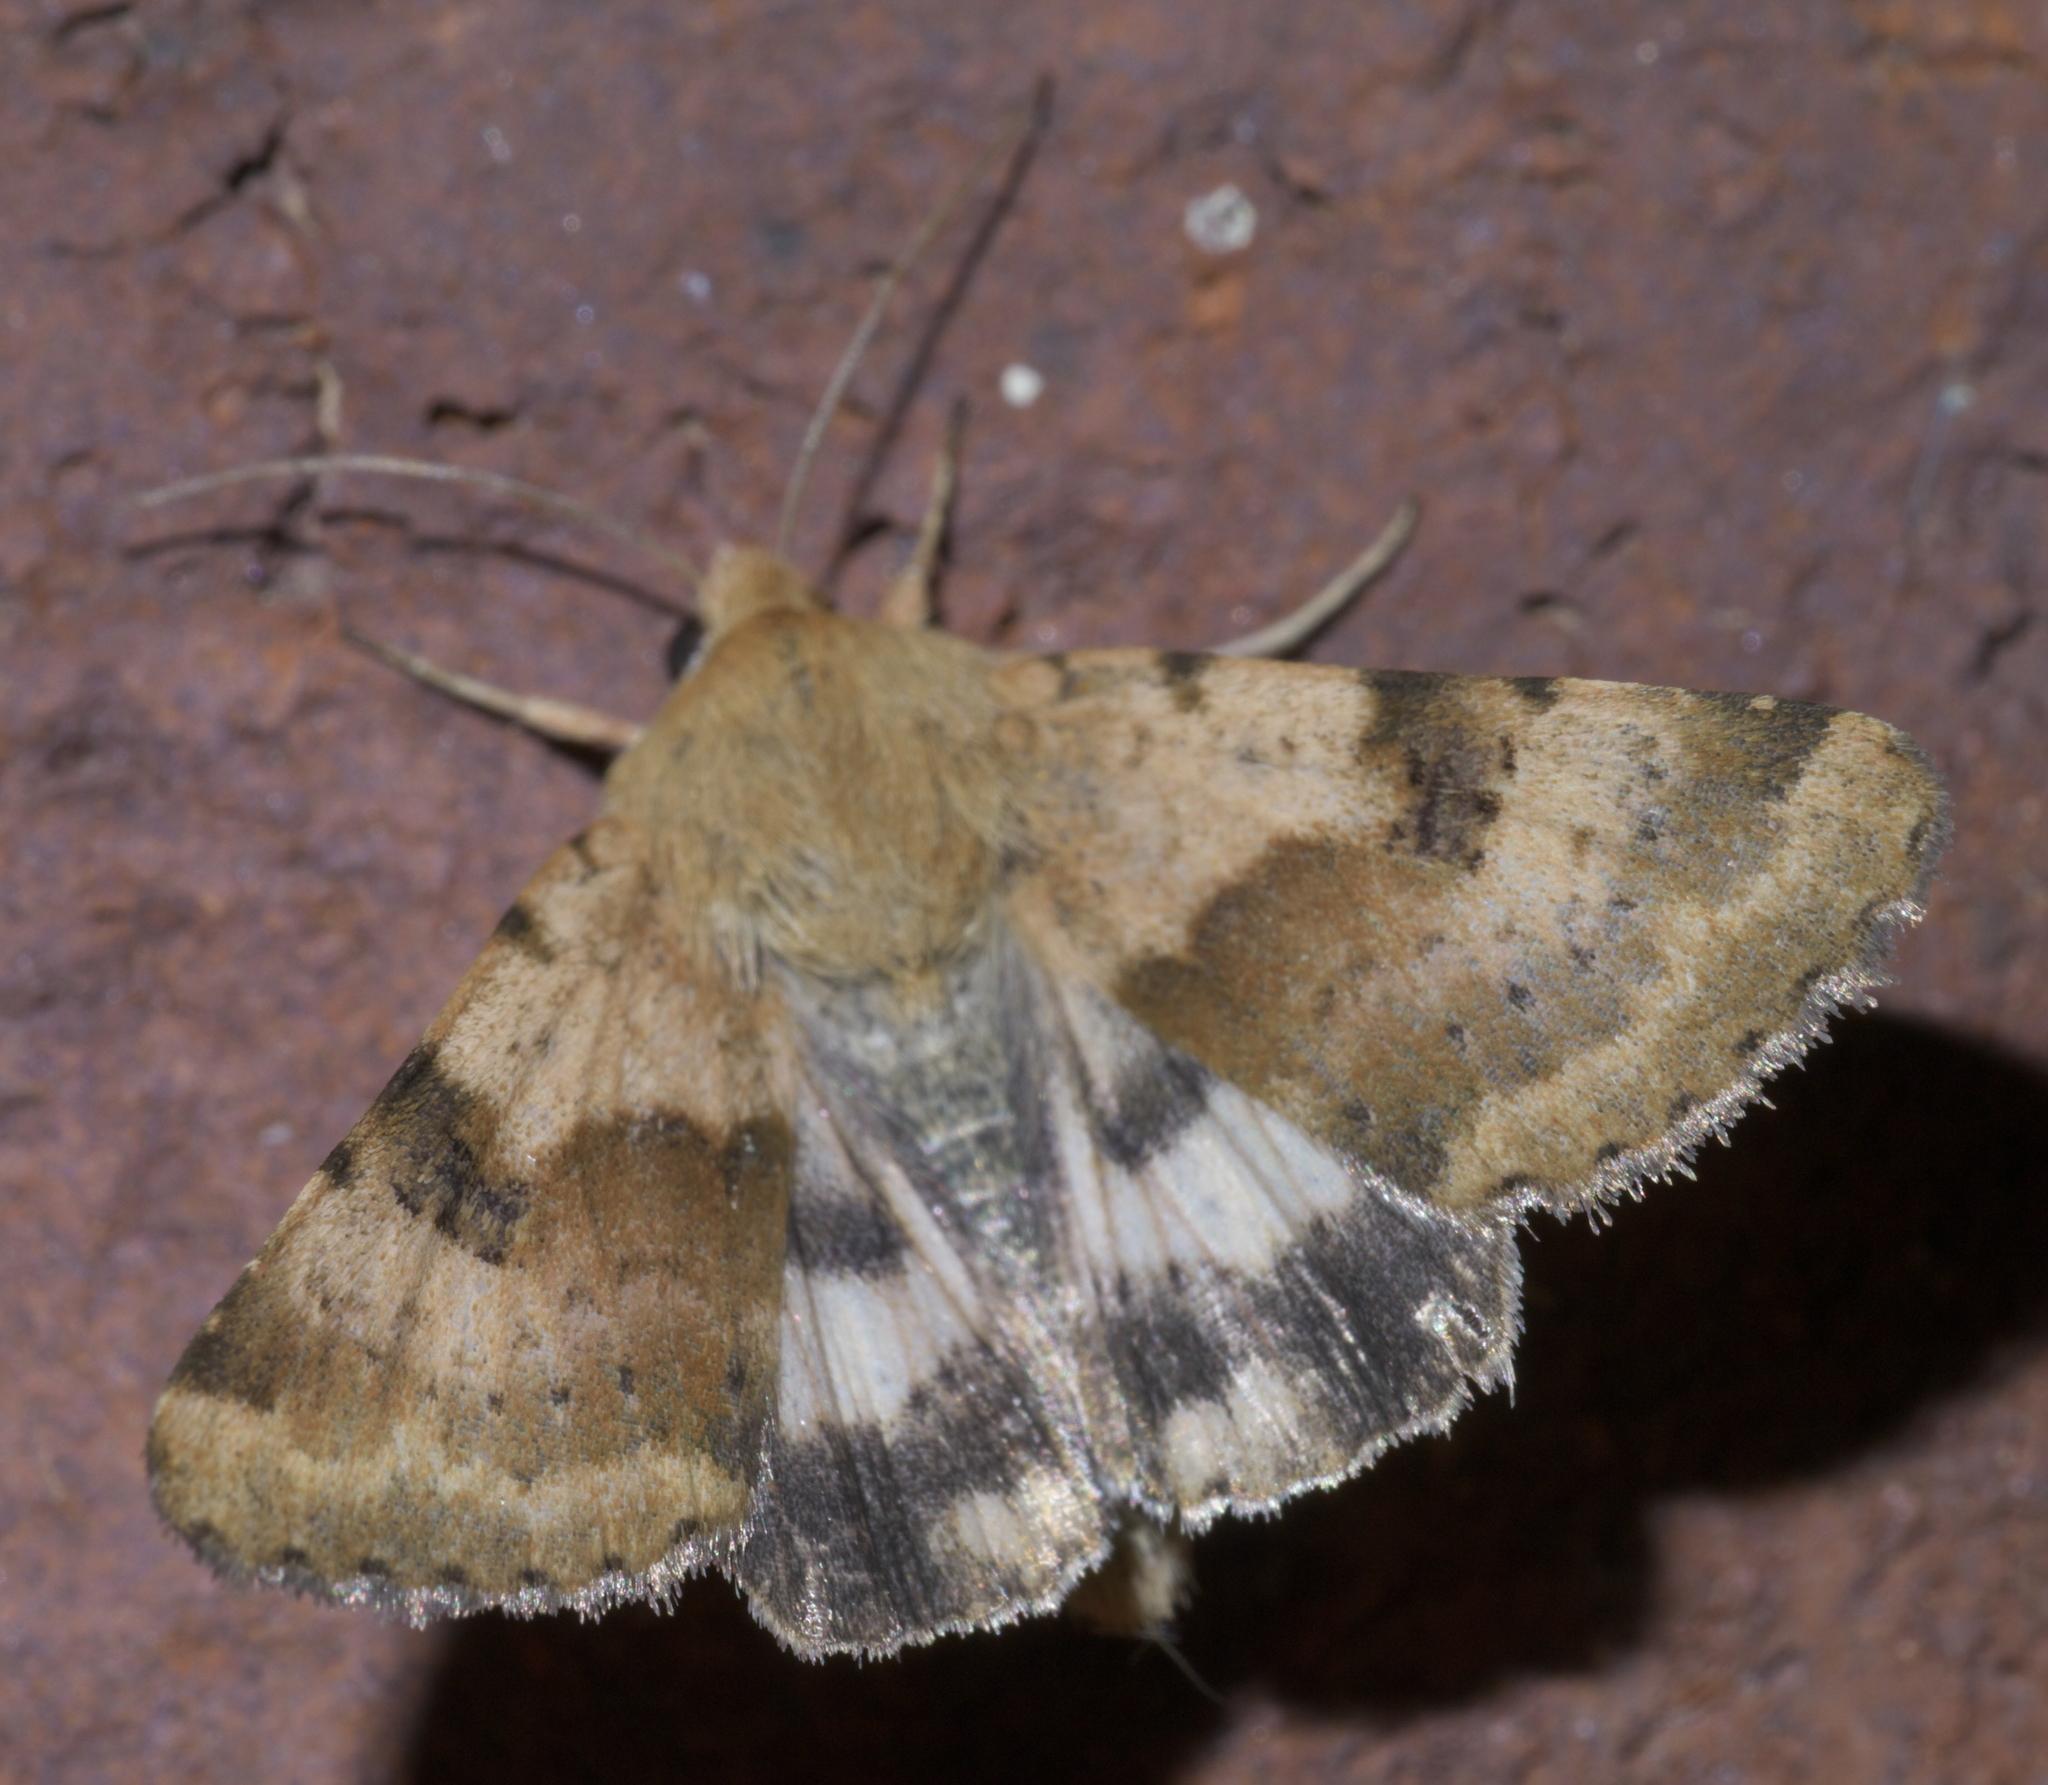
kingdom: Animalia
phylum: Arthropoda
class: Insecta
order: Lepidoptera
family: Noctuidae
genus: Heliothis
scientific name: Heliothis phloxiphaga
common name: Darker spotted straw moth
